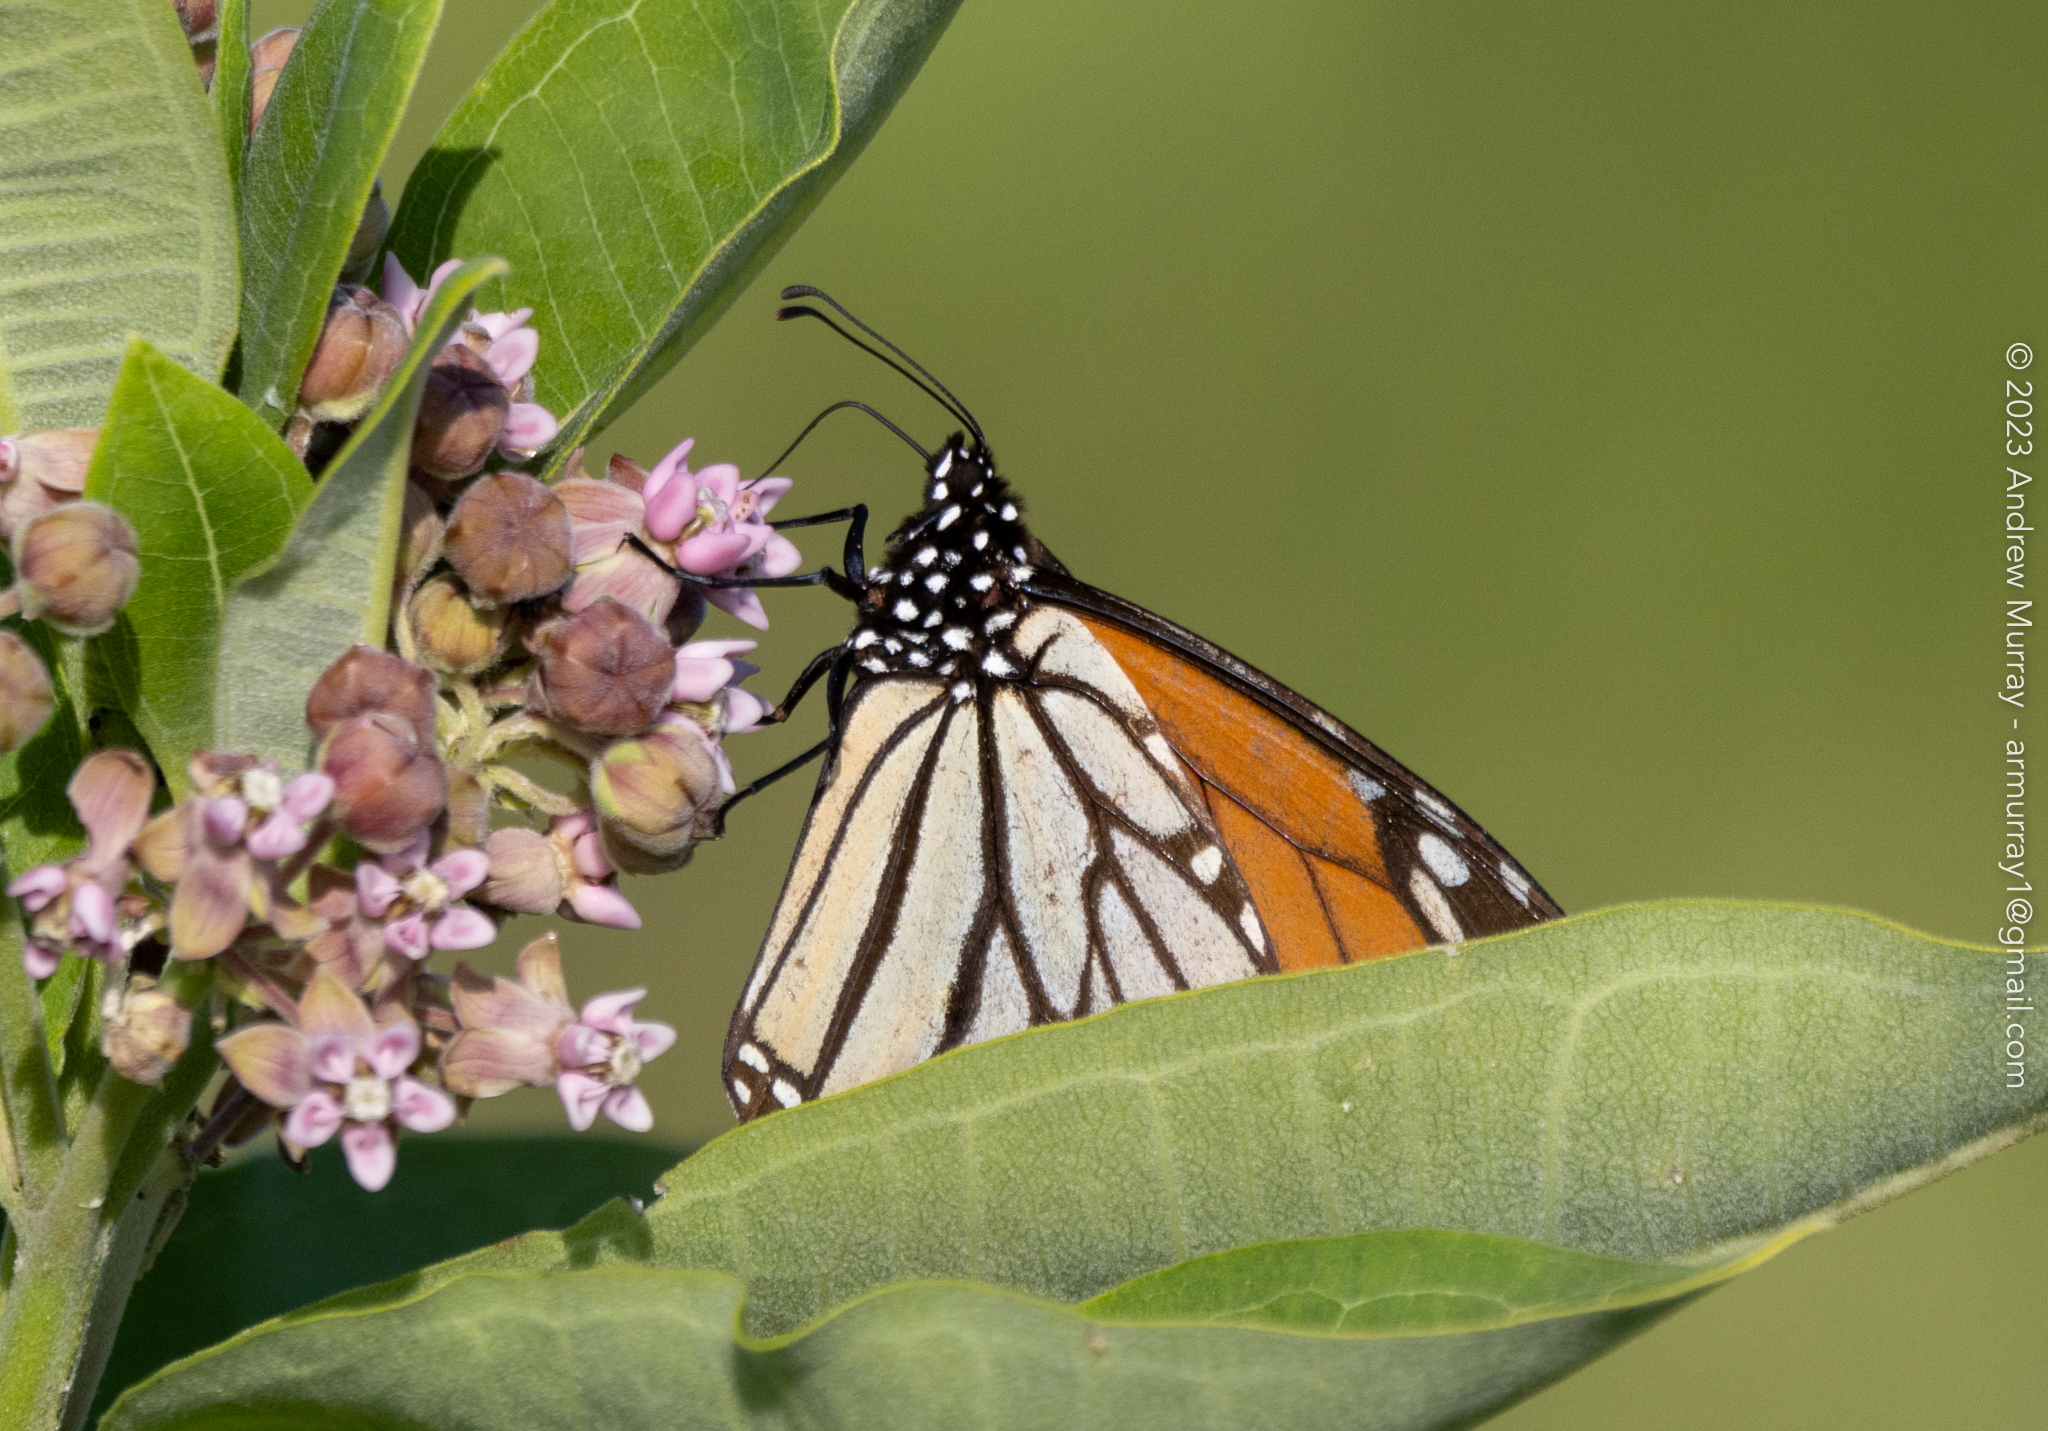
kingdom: Animalia
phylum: Arthropoda
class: Insecta
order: Lepidoptera
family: Nymphalidae
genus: Danaus
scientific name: Danaus plexippus
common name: Monarch
